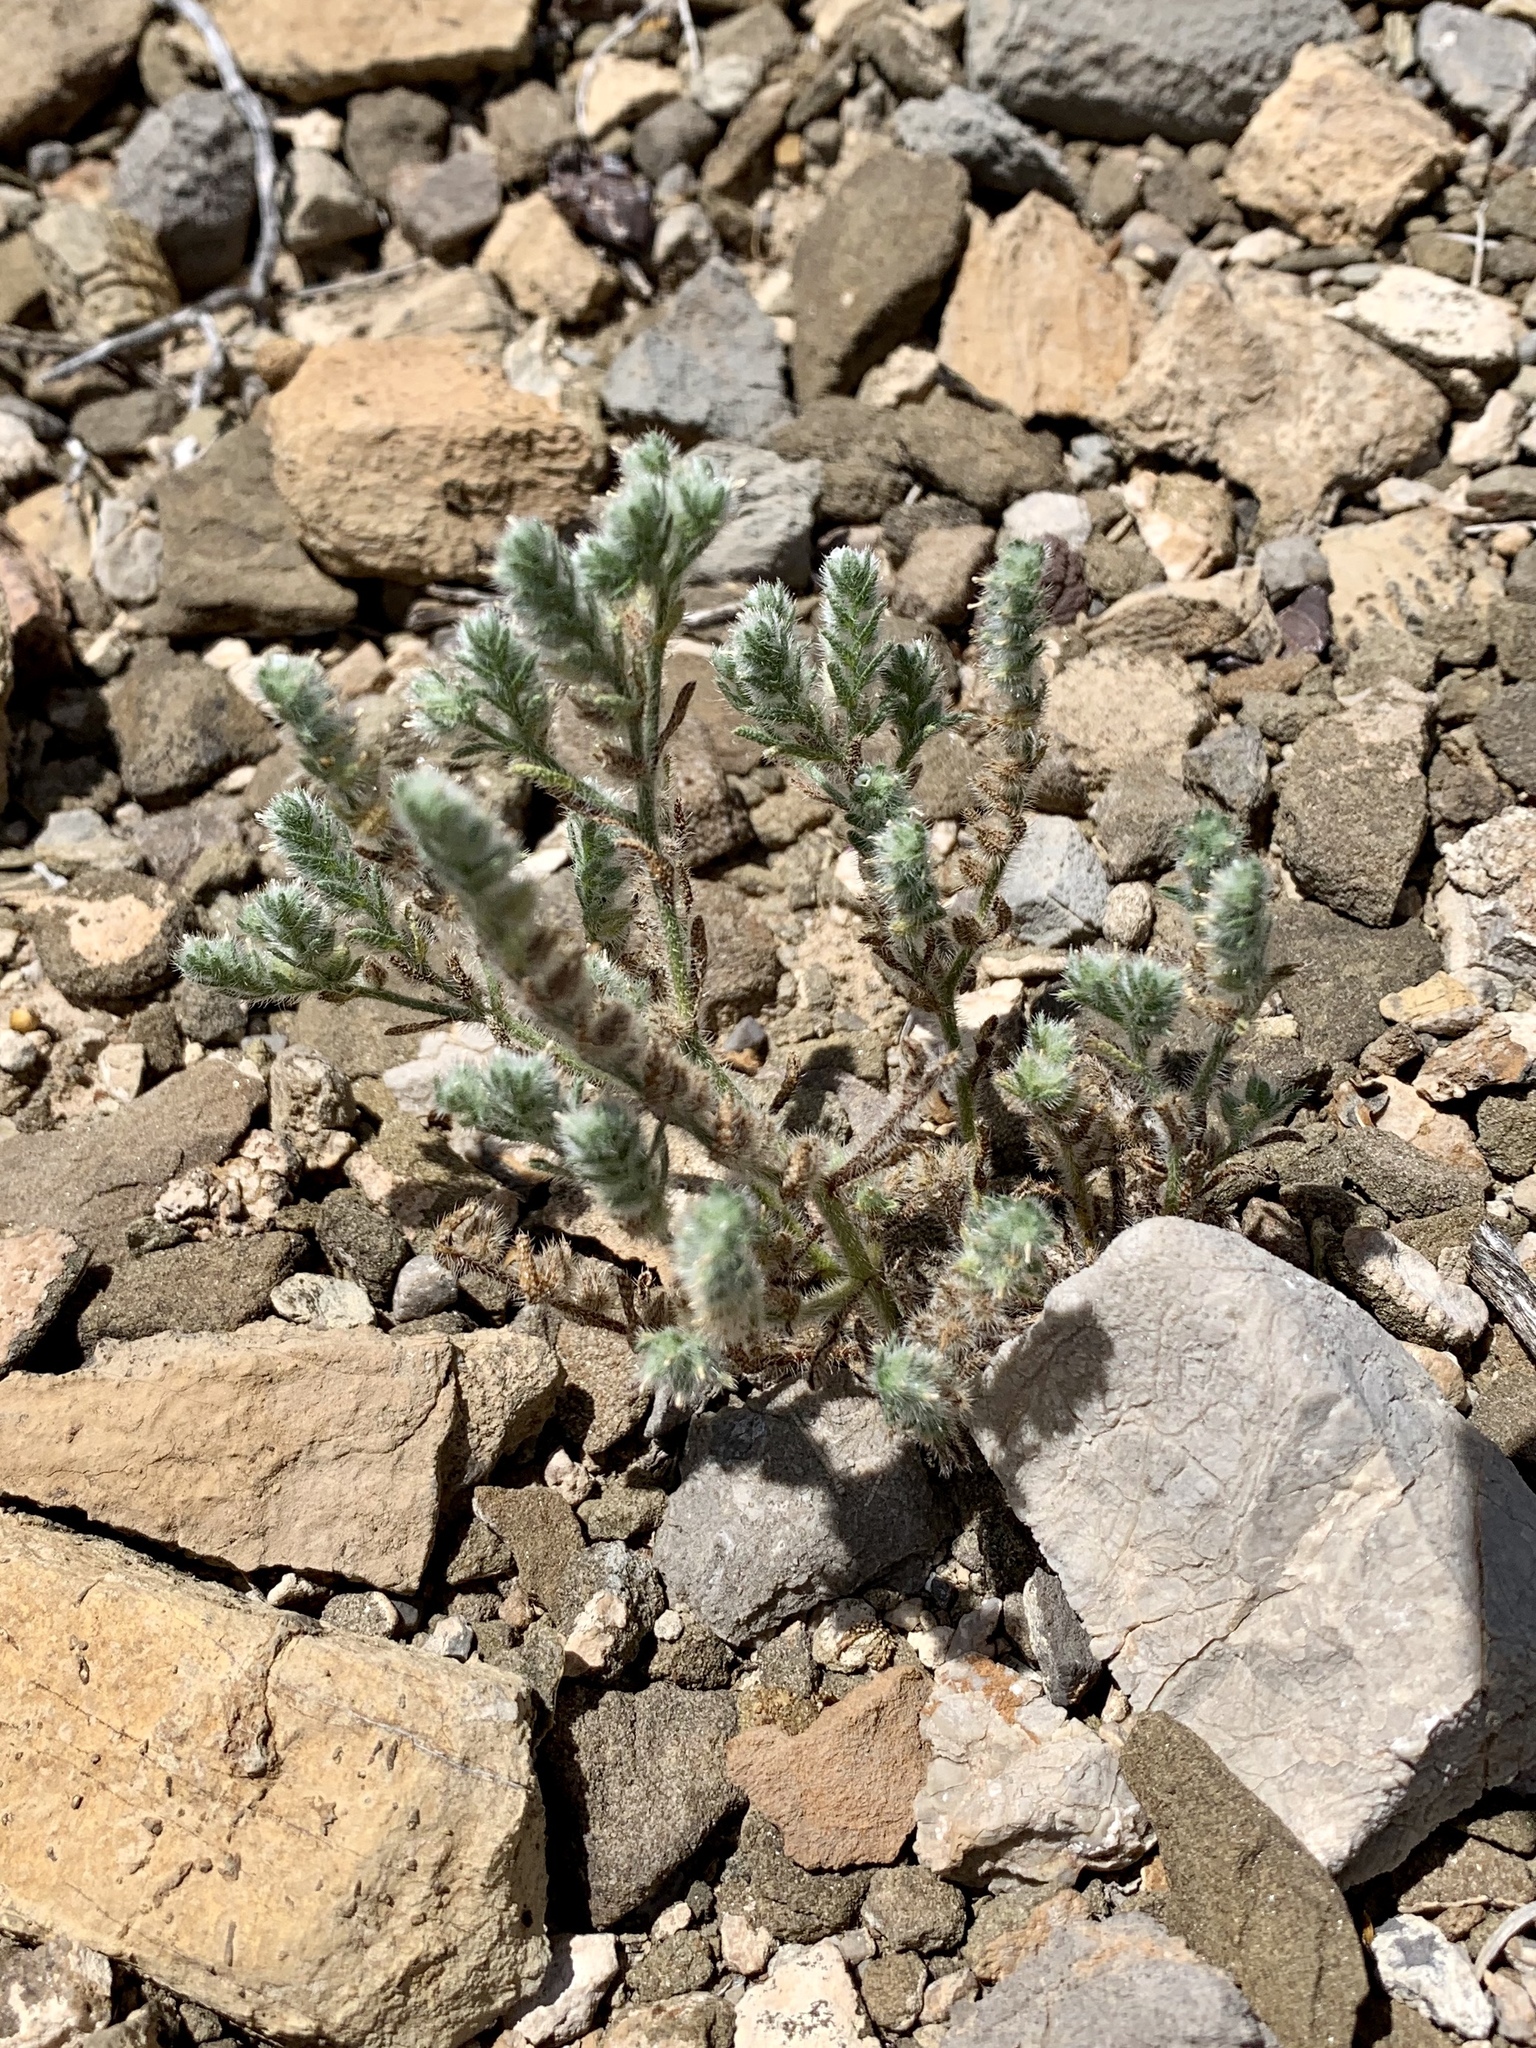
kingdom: Plantae
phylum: Tracheophyta
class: Magnoliopsida
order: Boraginales
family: Boraginaceae
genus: Johnstonella
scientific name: Johnstonella mexicana
